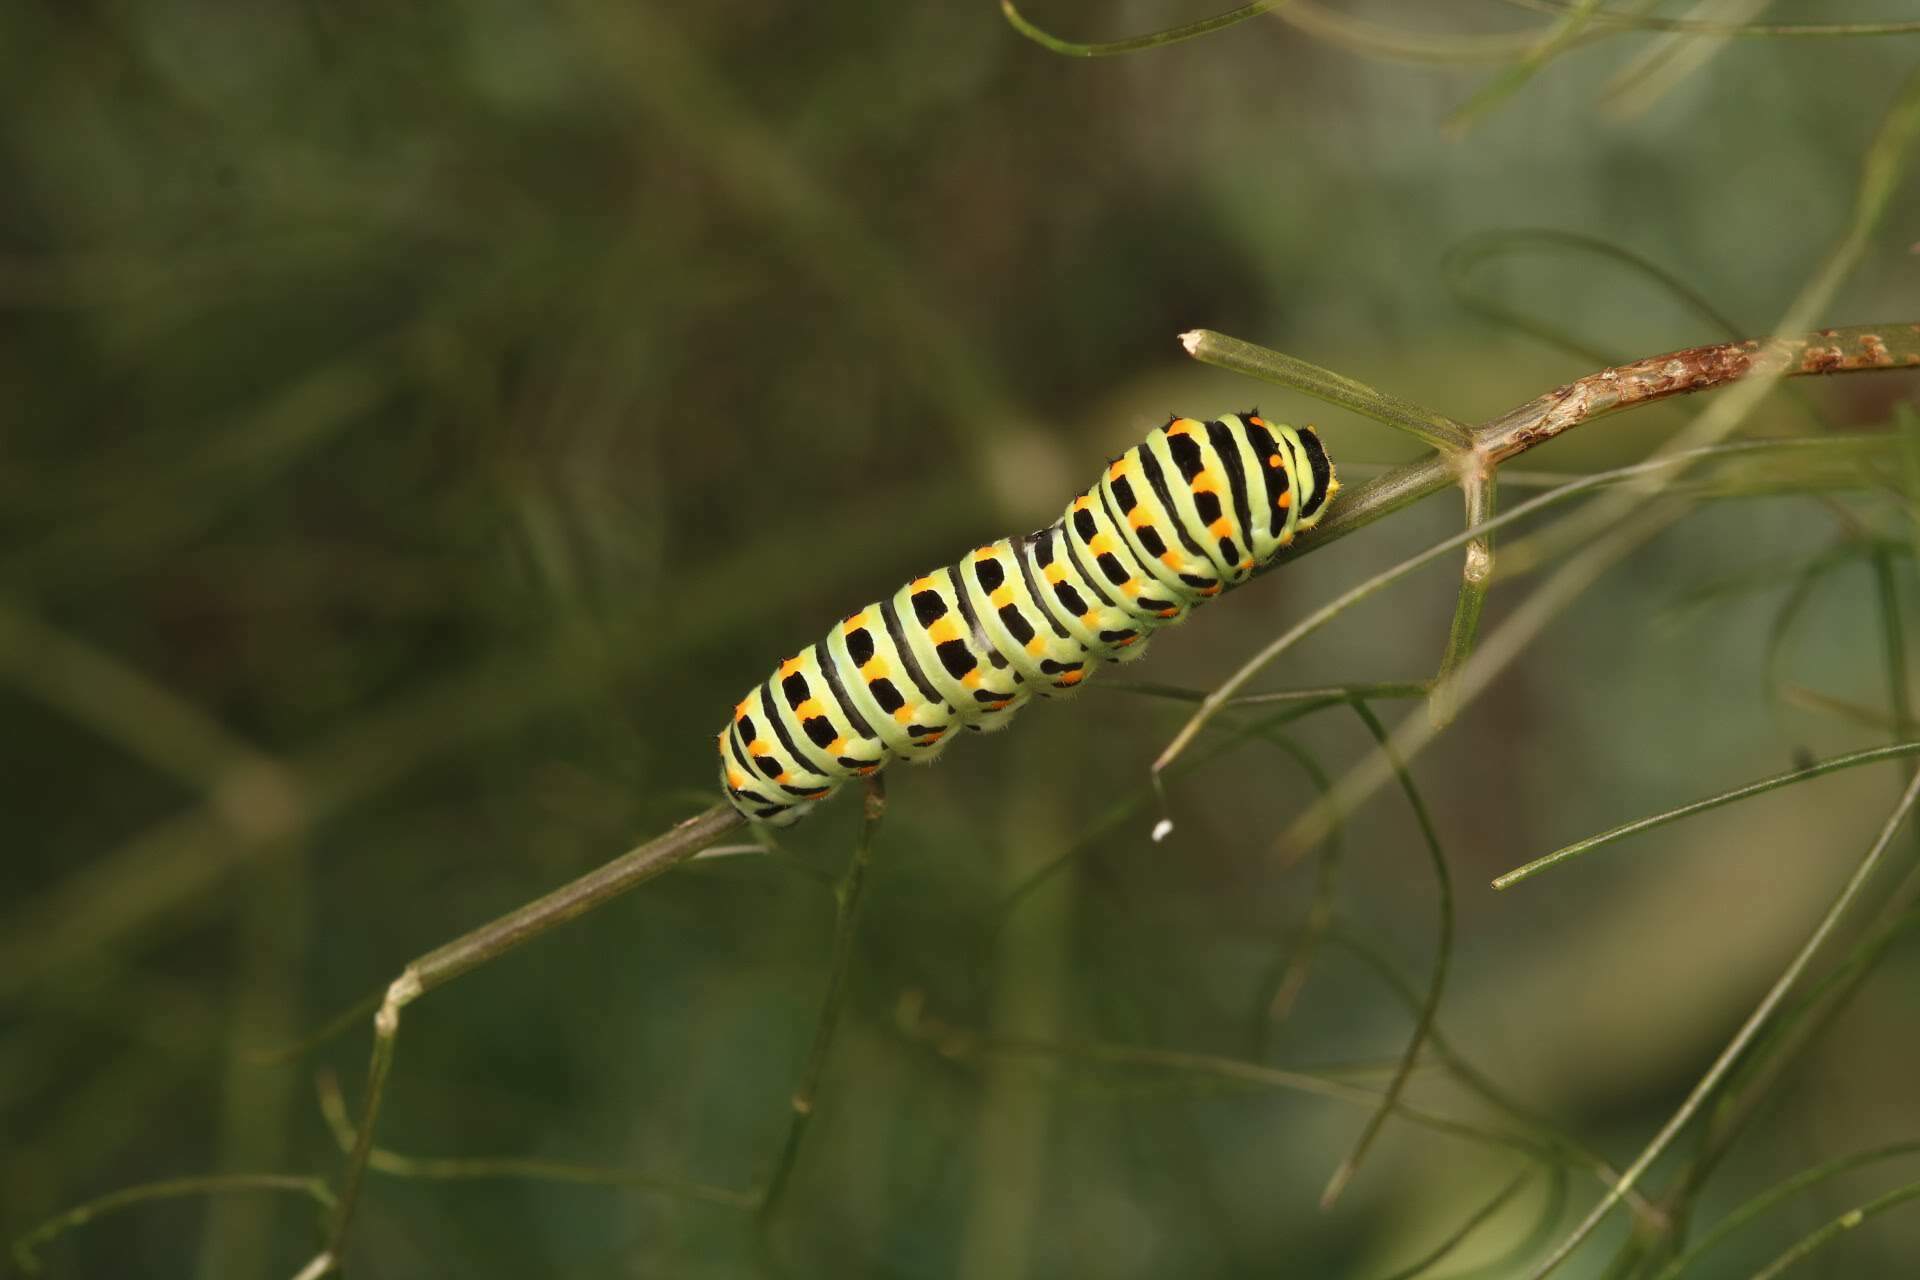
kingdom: Animalia
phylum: Arthropoda
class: Insecta
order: Lepidoptera
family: Papilionidae
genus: Papilio
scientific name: Papilio machaon
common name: Swallowtail
